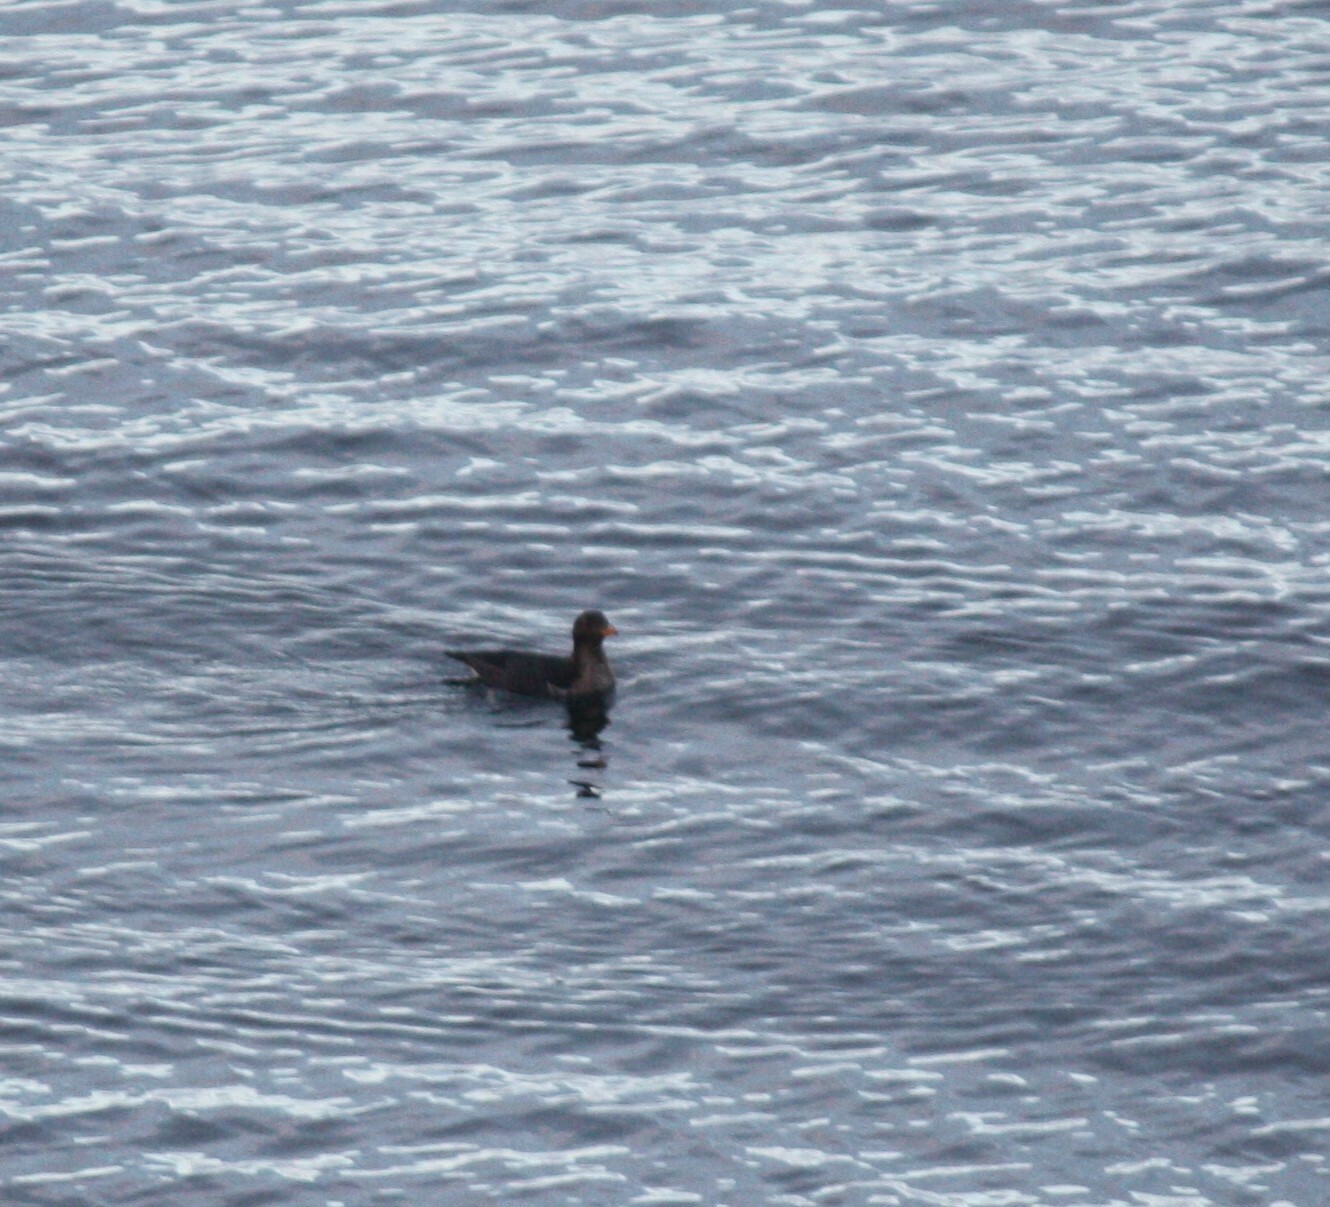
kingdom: Animalia
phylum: Chordata
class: Aves
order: Charadriiformes
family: Alcidae
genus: Cerorhinca
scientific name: Cerorhinca monocerata
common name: Rhinoceros auklet
